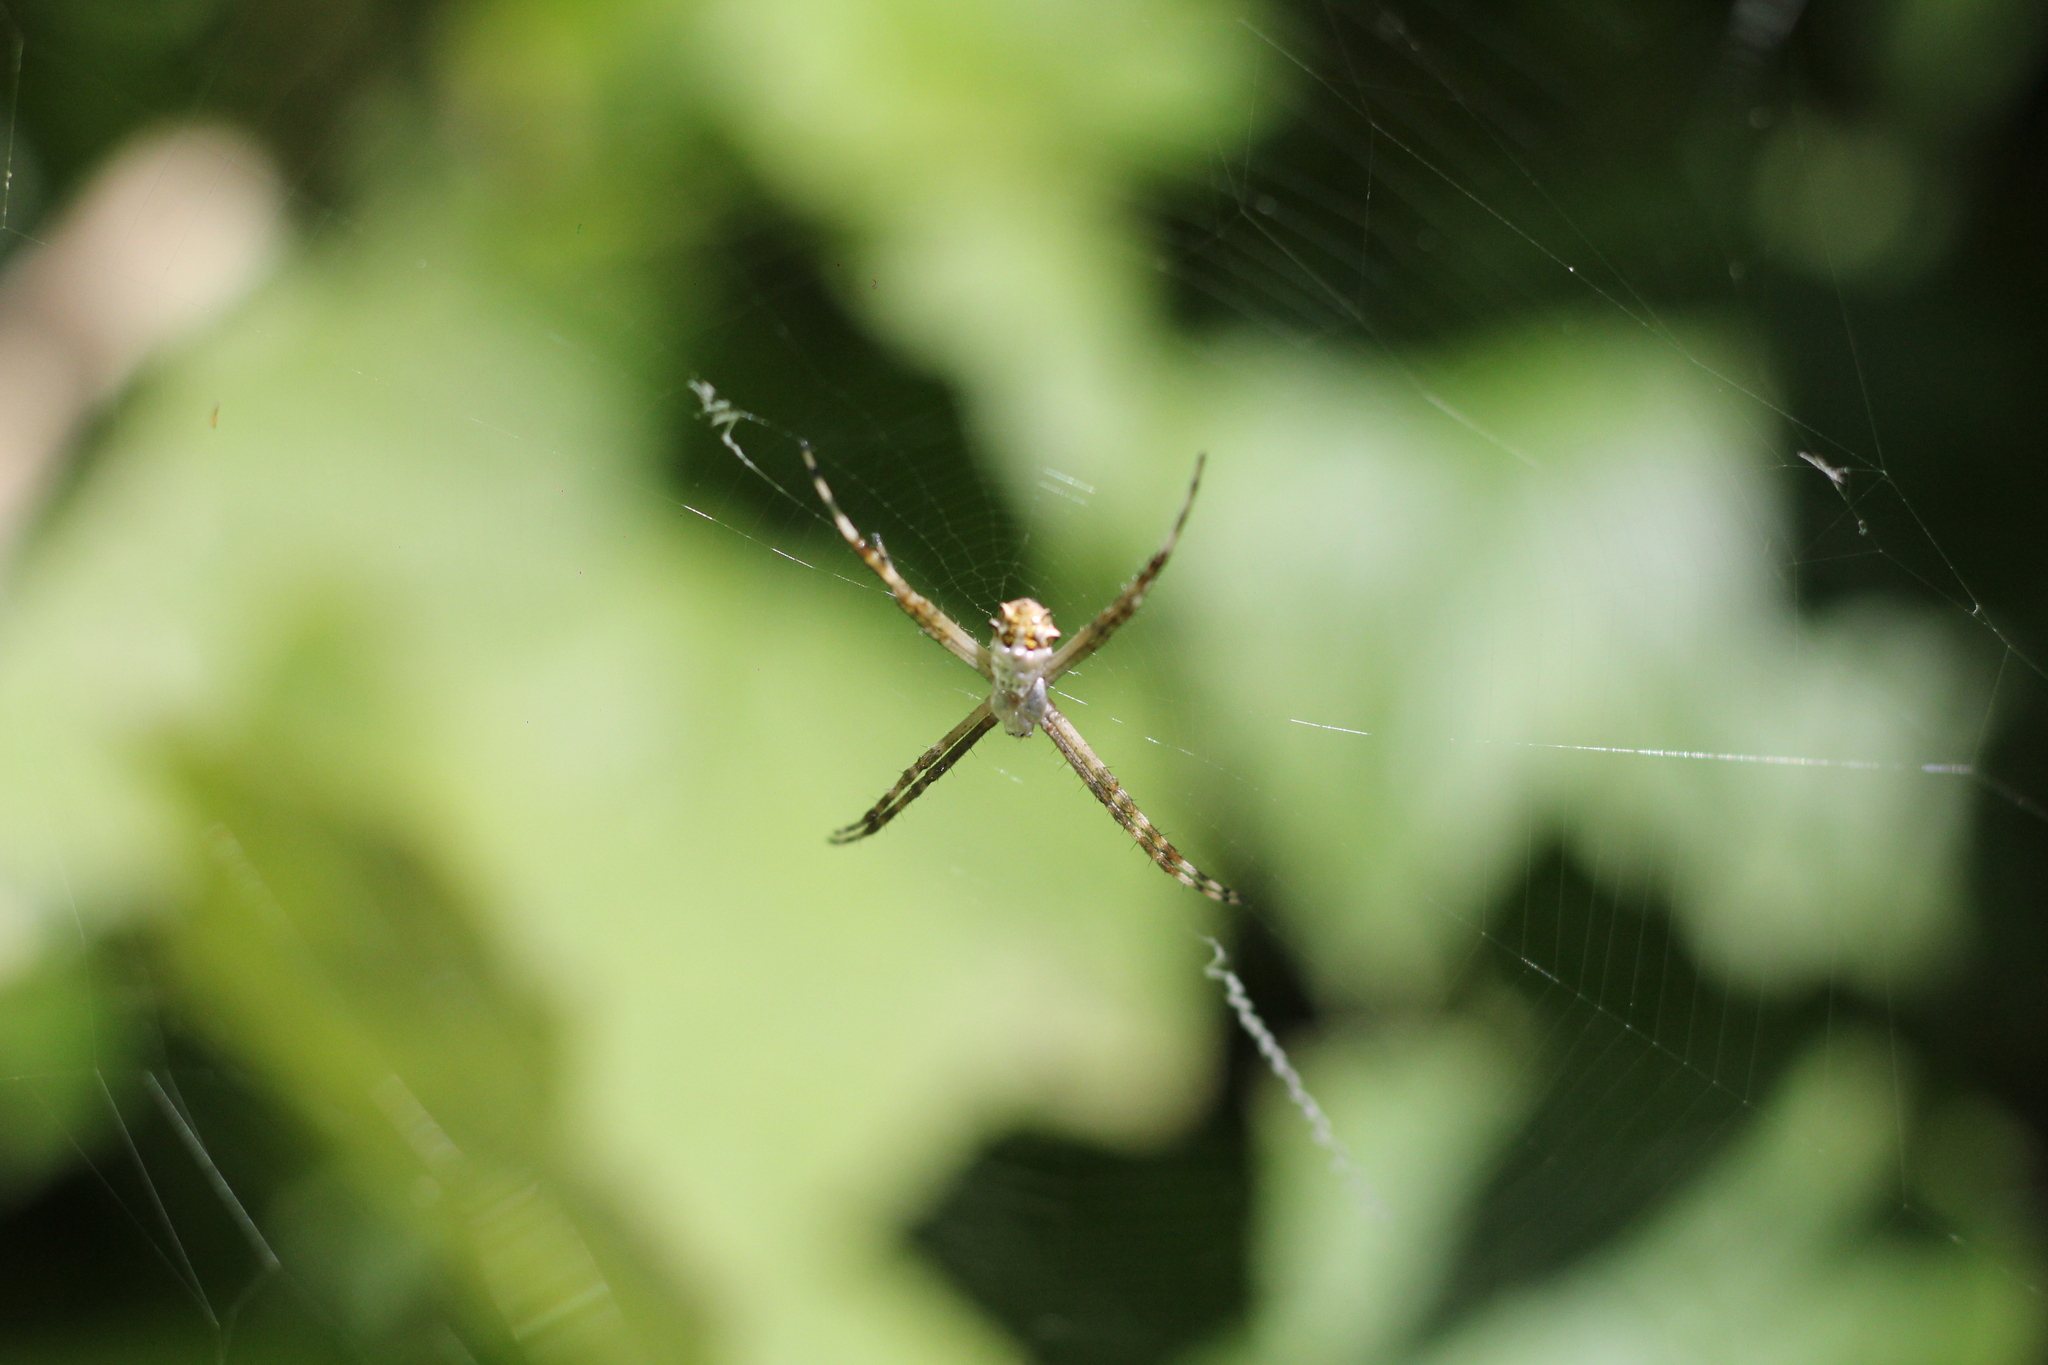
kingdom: Animalia
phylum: Arthropoda
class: Arachnida
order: Araneae
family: Araneidae
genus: Argiope
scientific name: Argiope argentata
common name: Orb weavers
